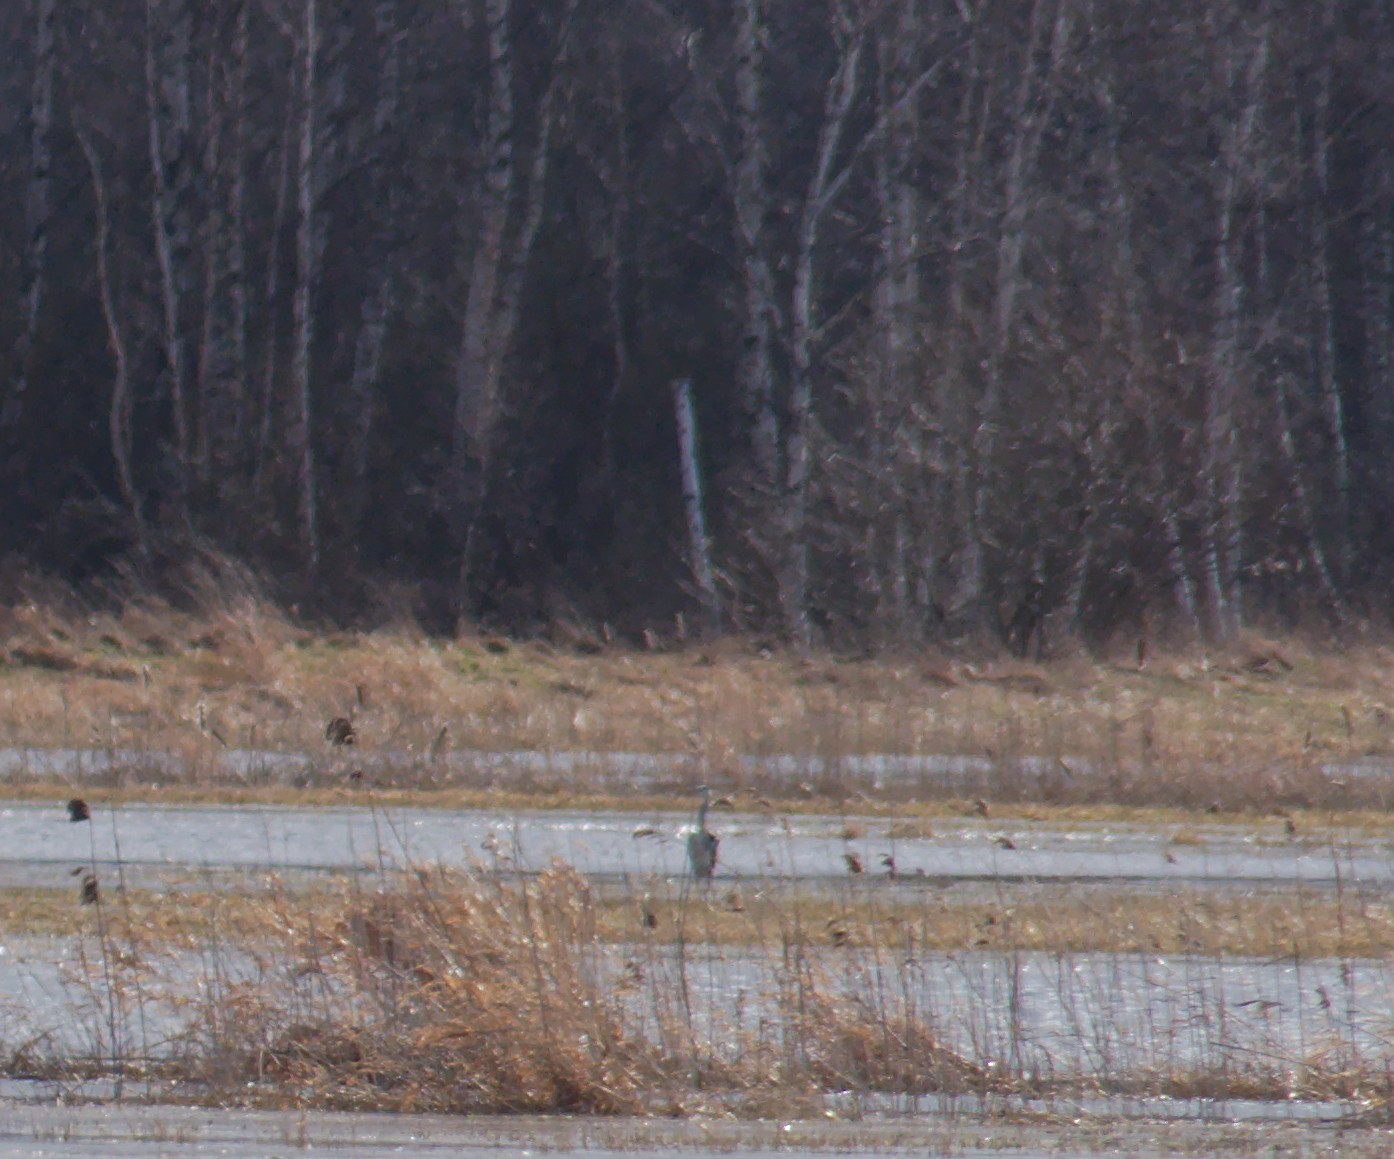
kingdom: Animalia
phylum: Chordata
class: Aves
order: Pelecaniformes
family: Ardeidae
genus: Ardea
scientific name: Ardea cinerea
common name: Grey heron
